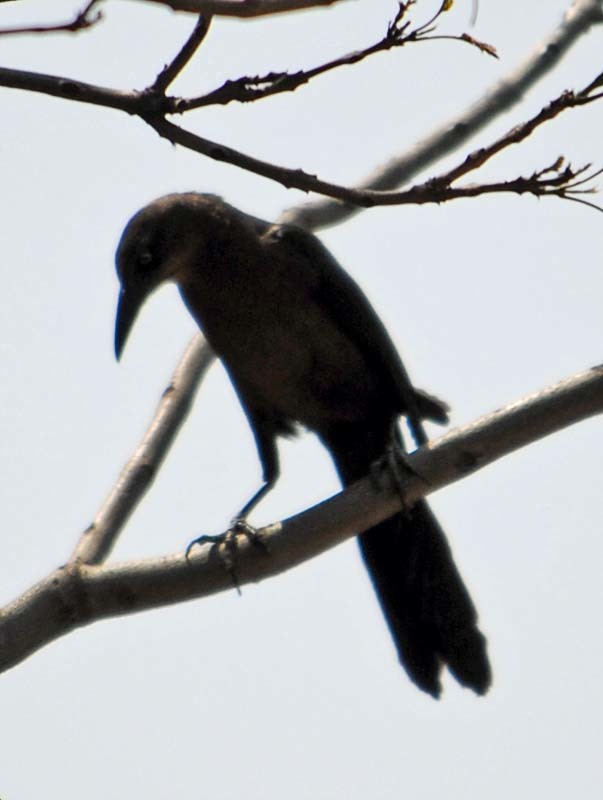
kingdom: Animalia
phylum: Chordata
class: Aves
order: Passeriformes
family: Icteridae
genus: Quiscalus
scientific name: Quiscalus mexicanus
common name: Great-tailed grackle
